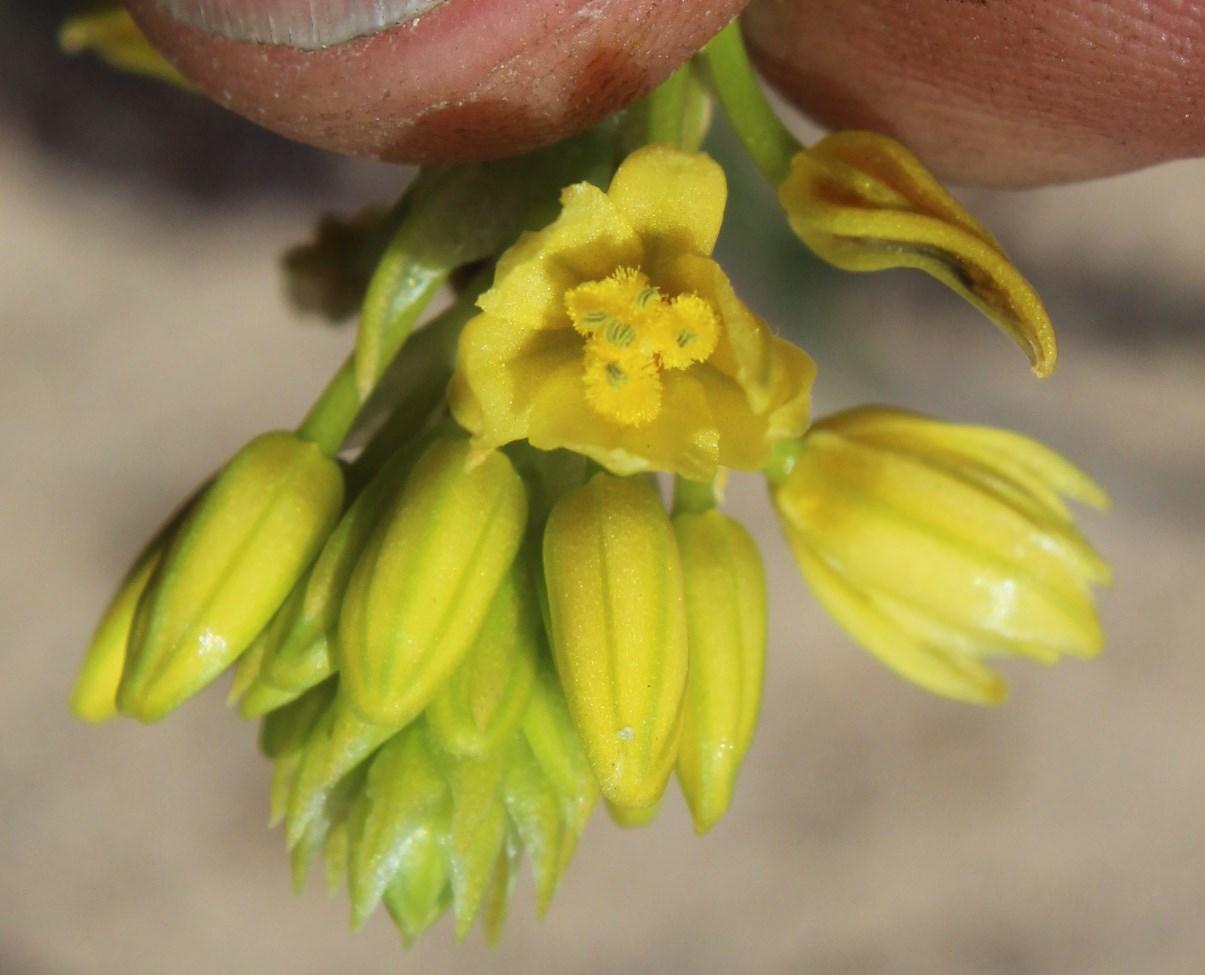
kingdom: Plantae
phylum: Tracheophyta
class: Liliopsida
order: Asparagales
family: Asphodelaceae
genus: Bulbine
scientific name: Bulbine annua
